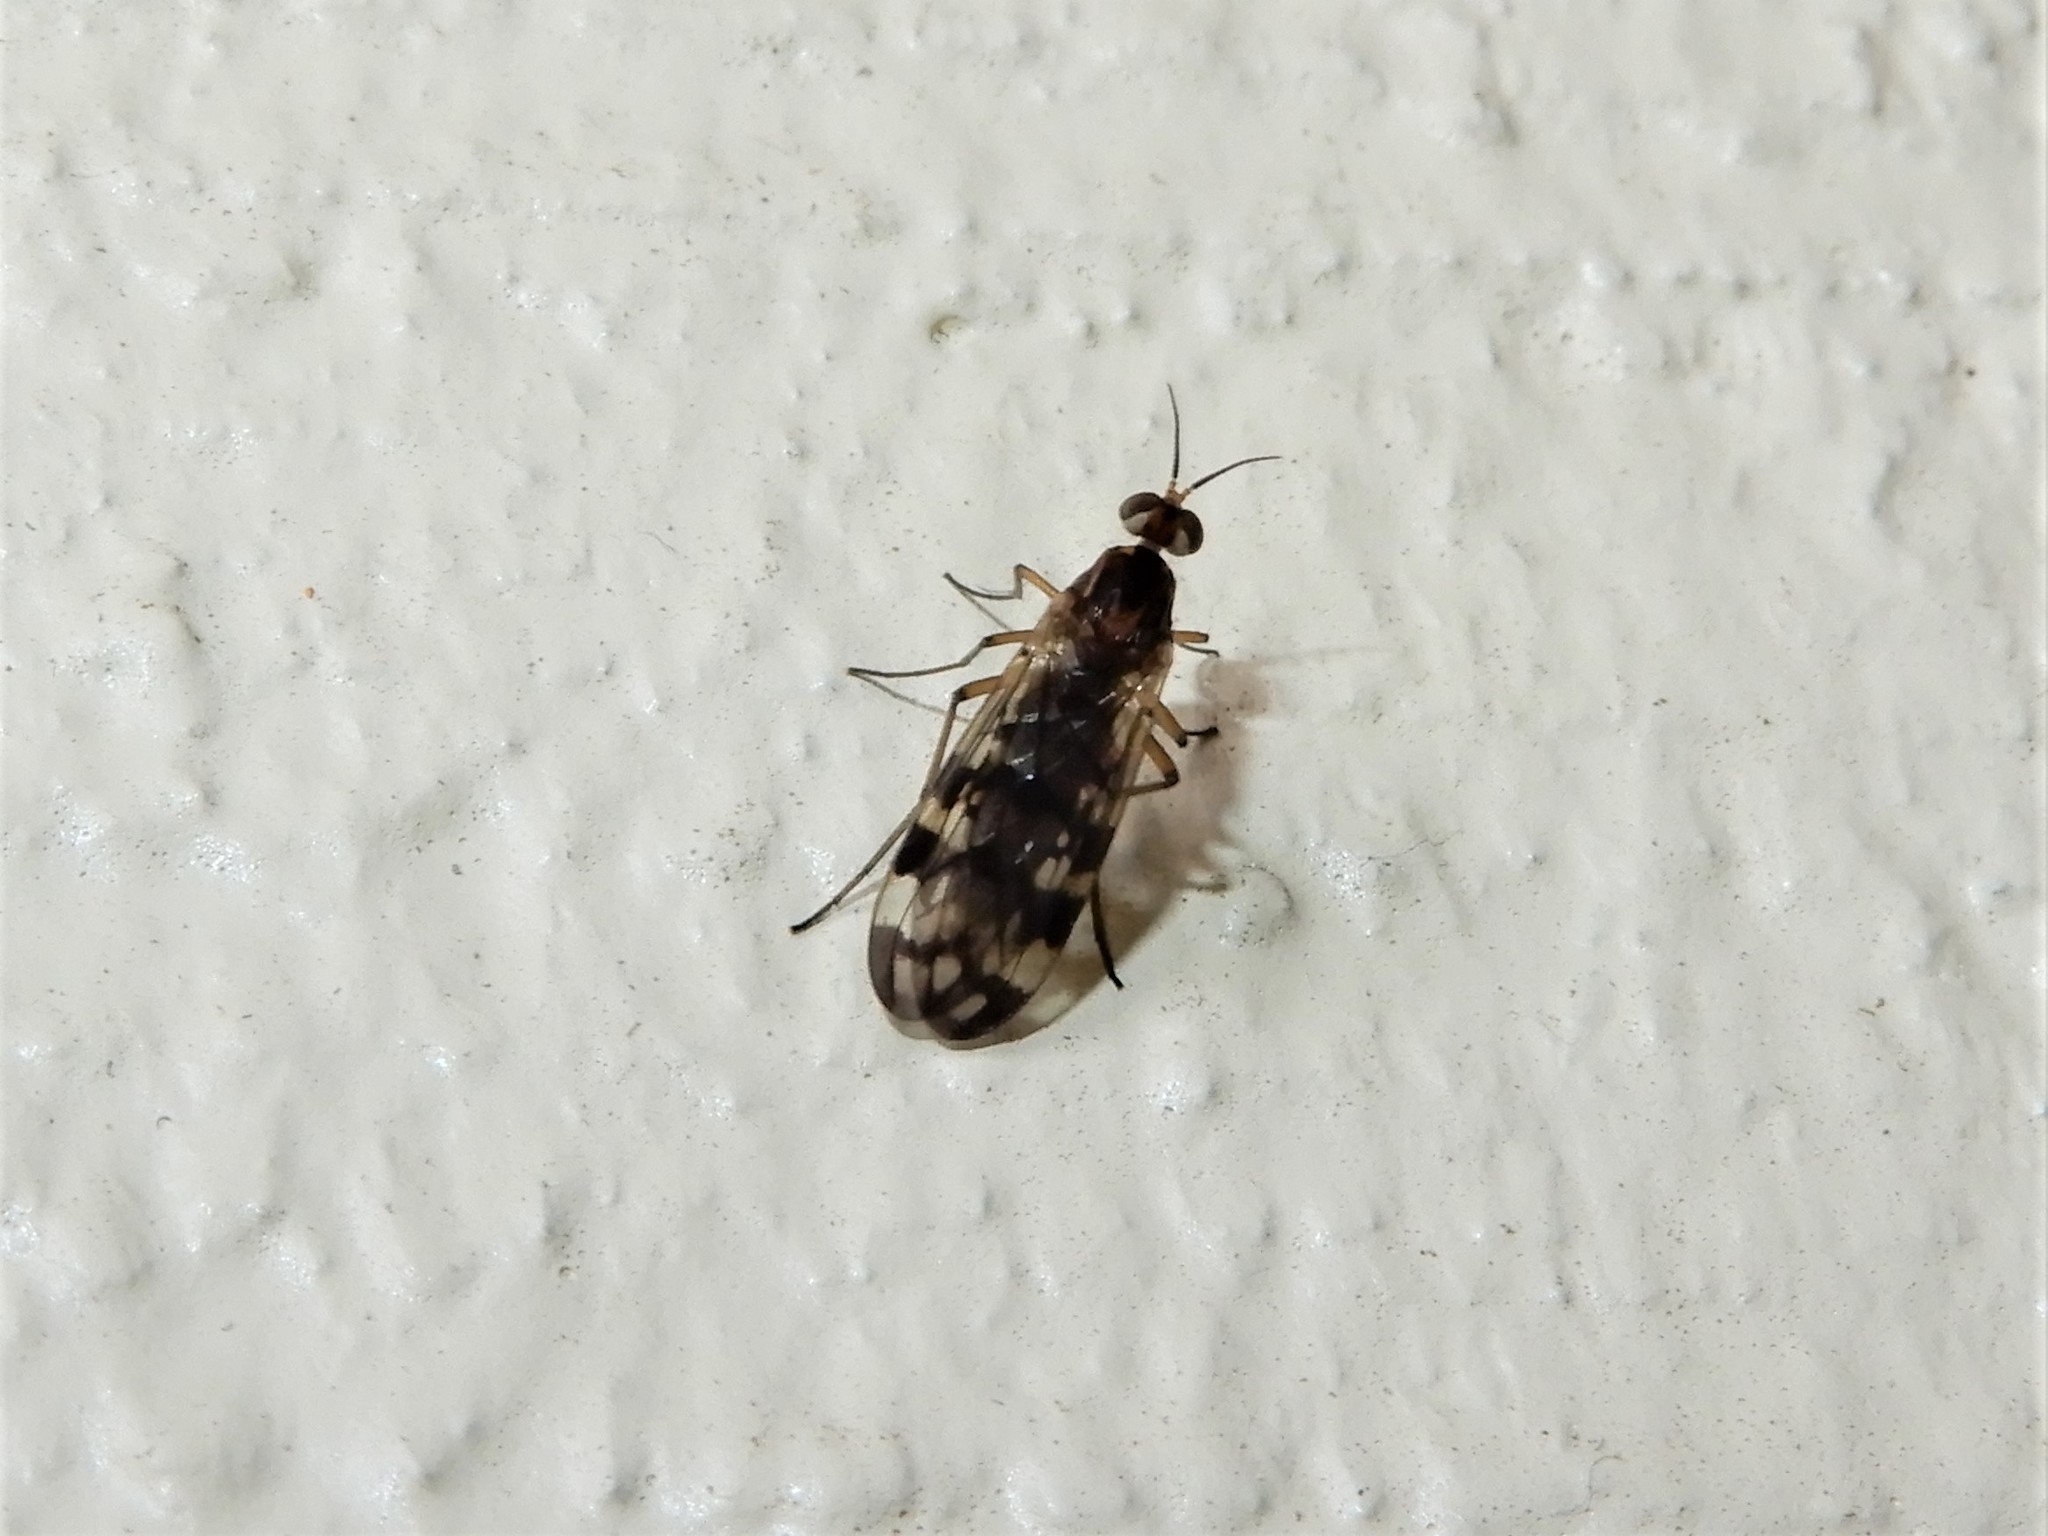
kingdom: Animalia
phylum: Arthropoda
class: Insecta
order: Diptera
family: Anisopodidae
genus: Sylvicola
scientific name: Sylvicola dubius
